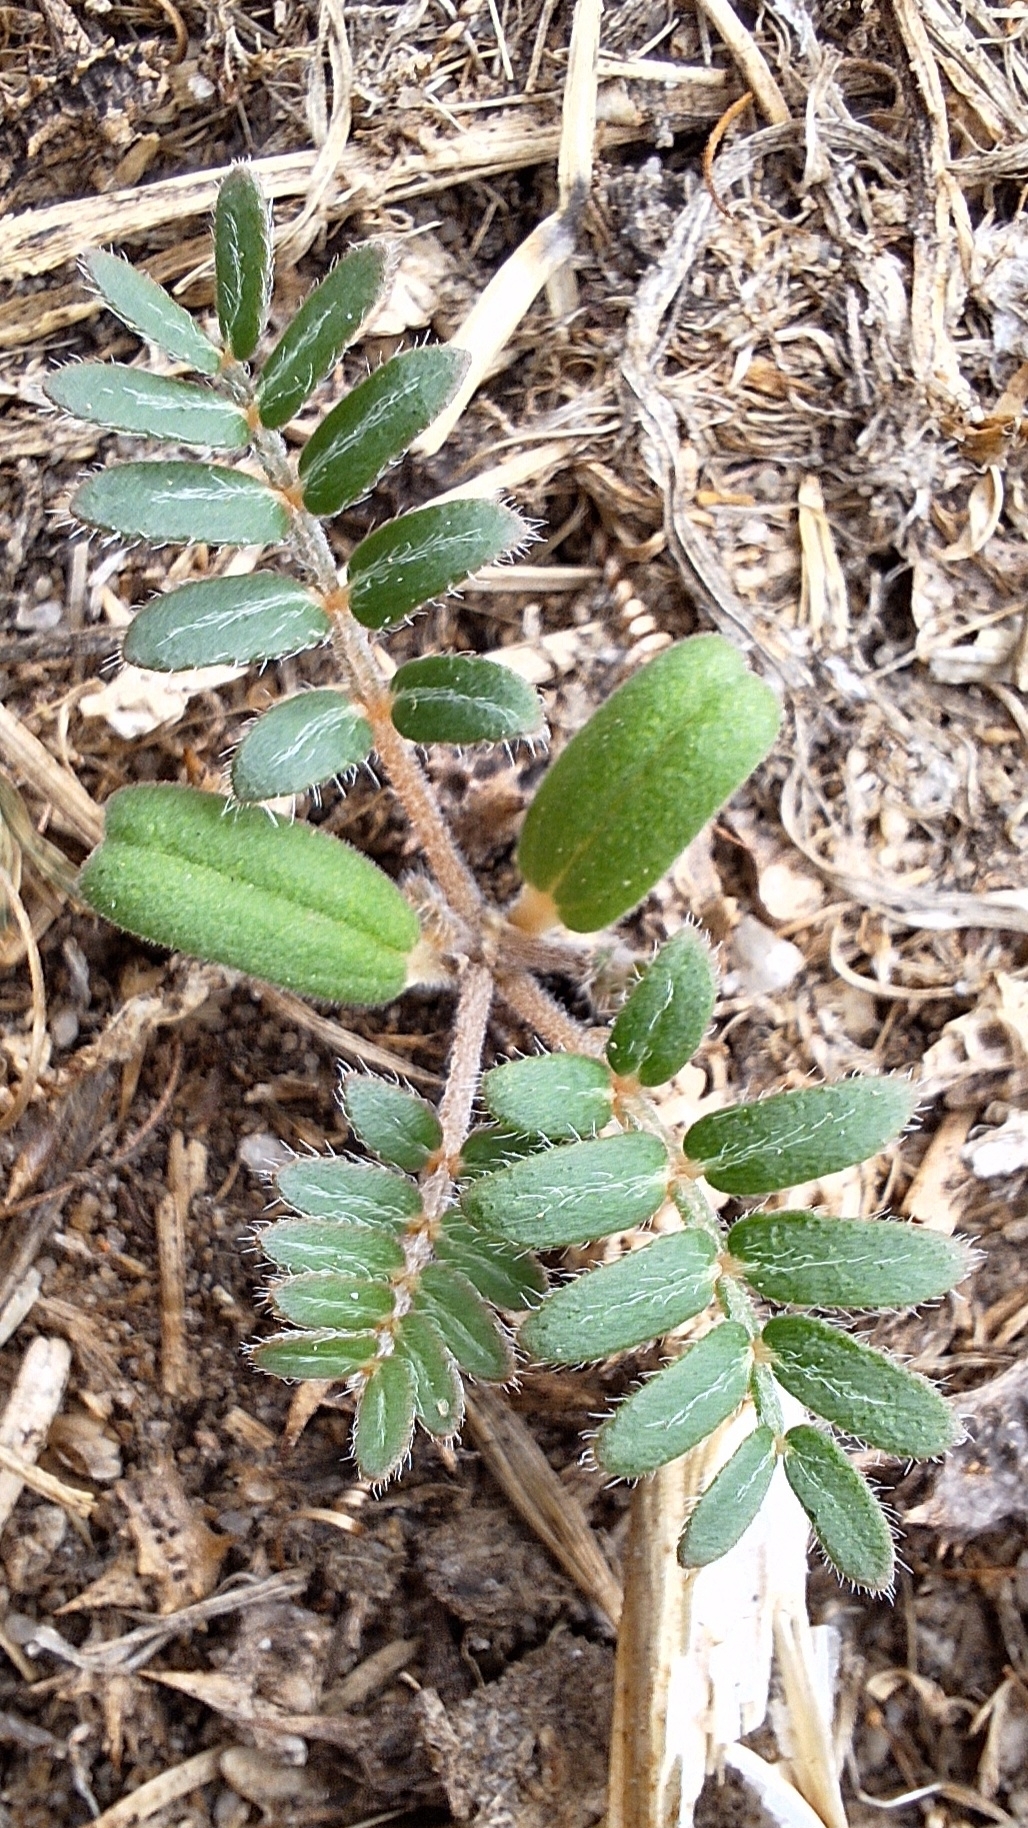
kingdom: Plantae
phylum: Tracheophyta
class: Magnoliopsida
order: Zygophyllales
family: Zygophyllaceae
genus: Tribulus
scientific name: Tribulus terrestris
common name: Puncturevine
